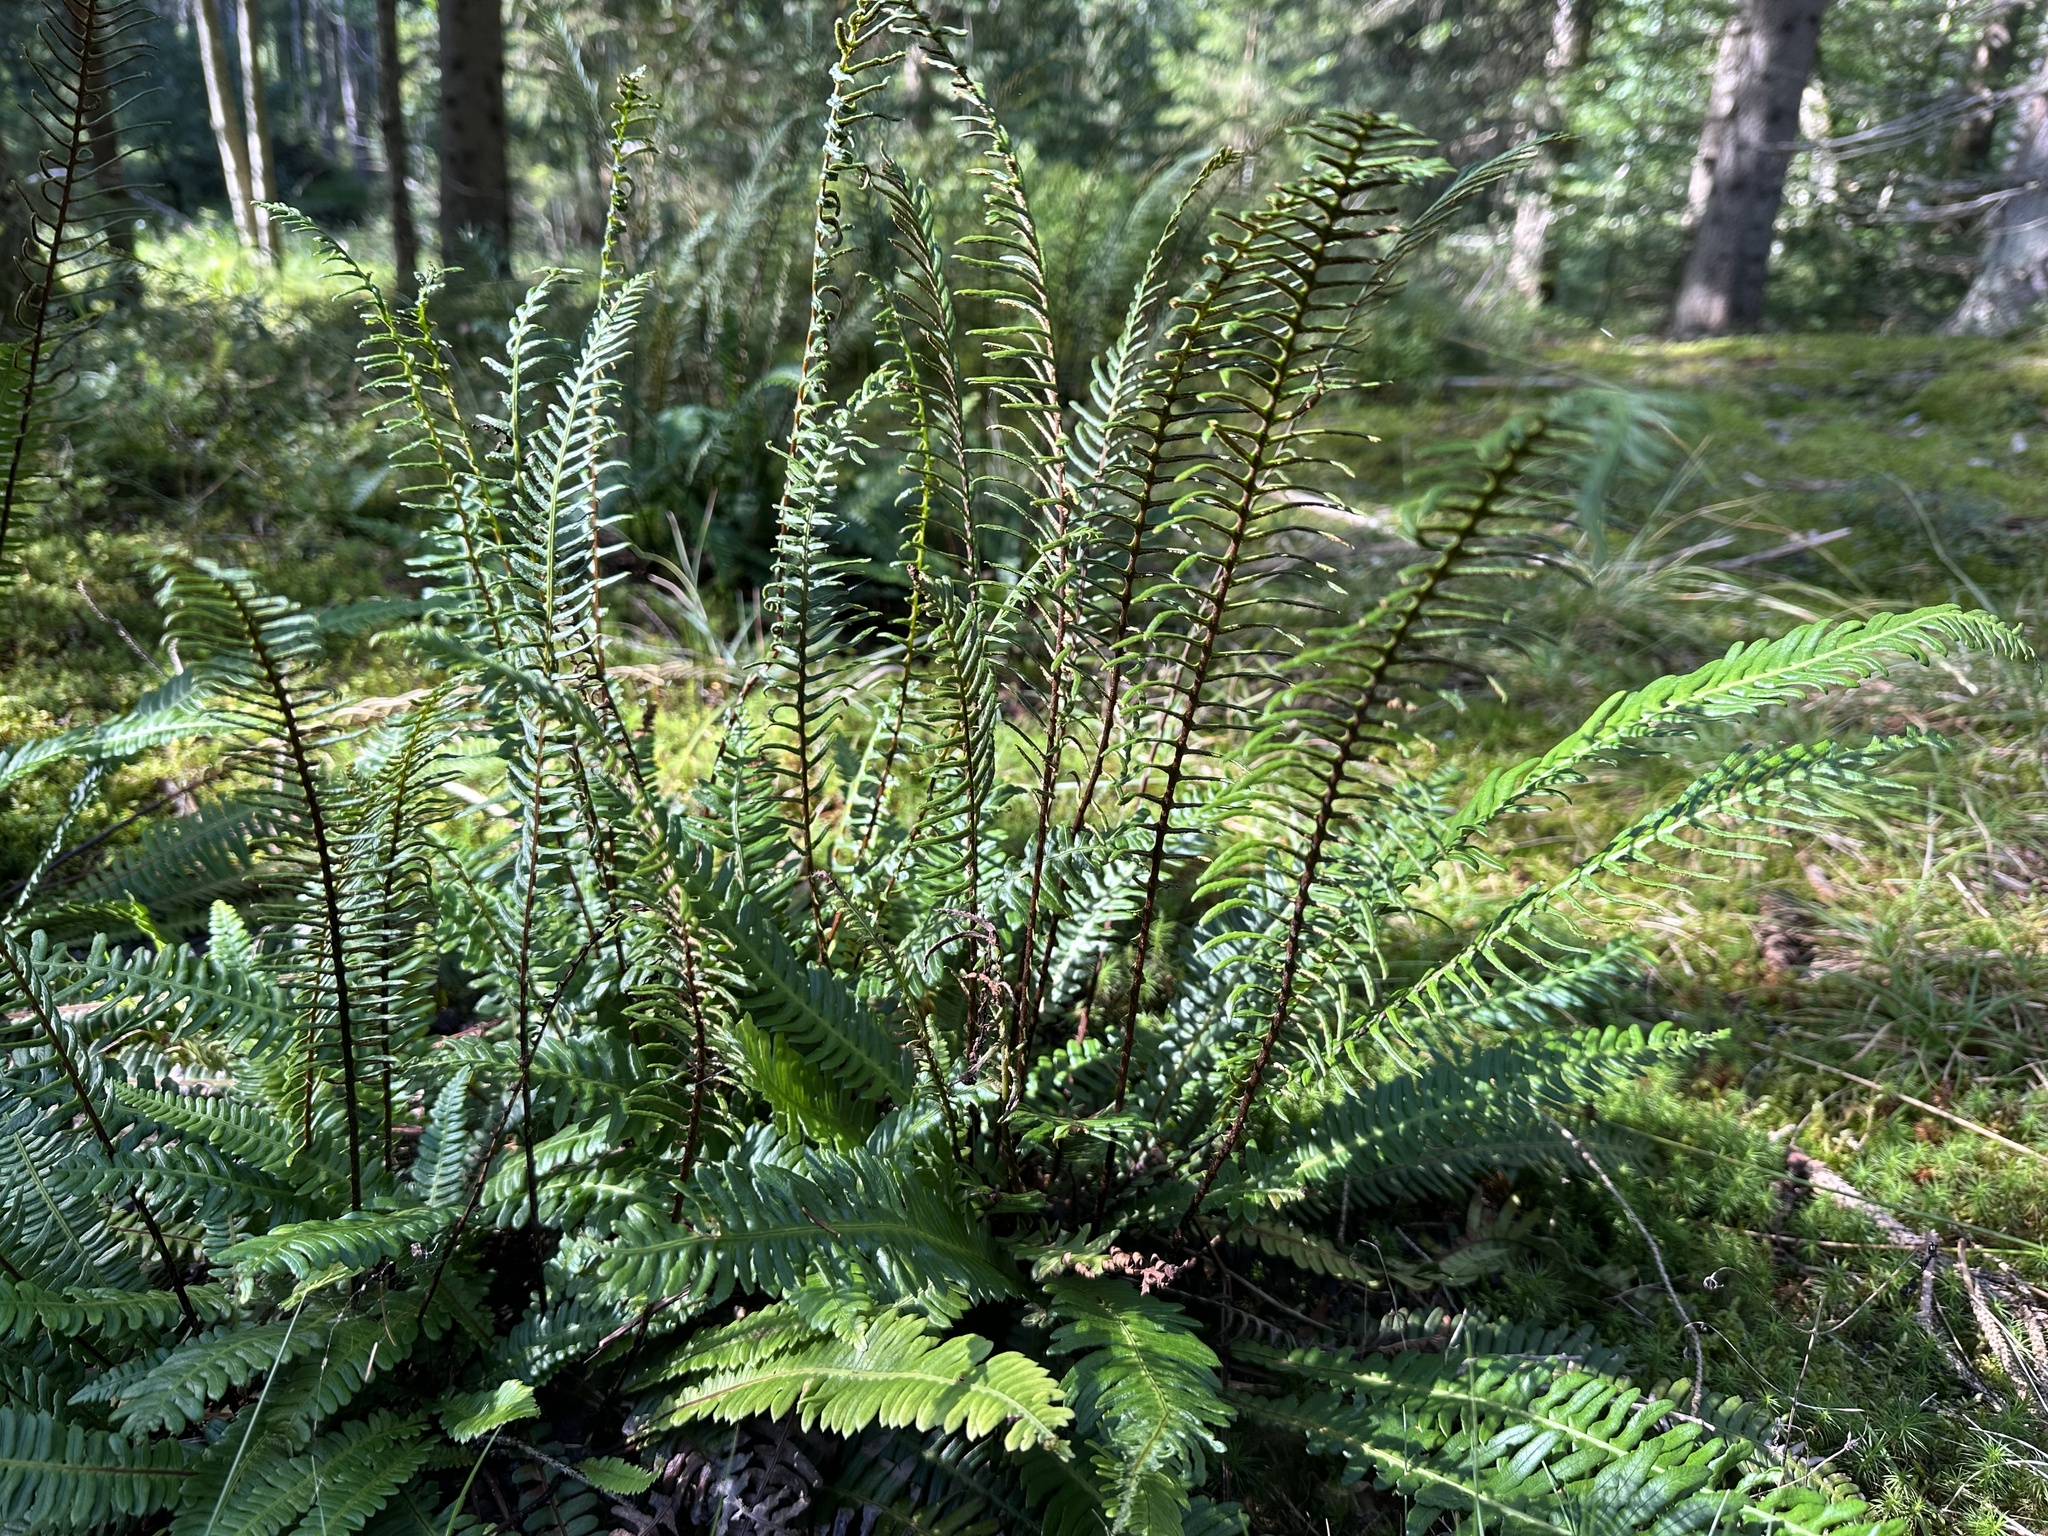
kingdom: Plantae
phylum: Tracheophyta
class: Polypodiopsida
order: Polypodiales
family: Blechnaceae
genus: Struthiopteris
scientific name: Struthiopteris spicant
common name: Deer fern
